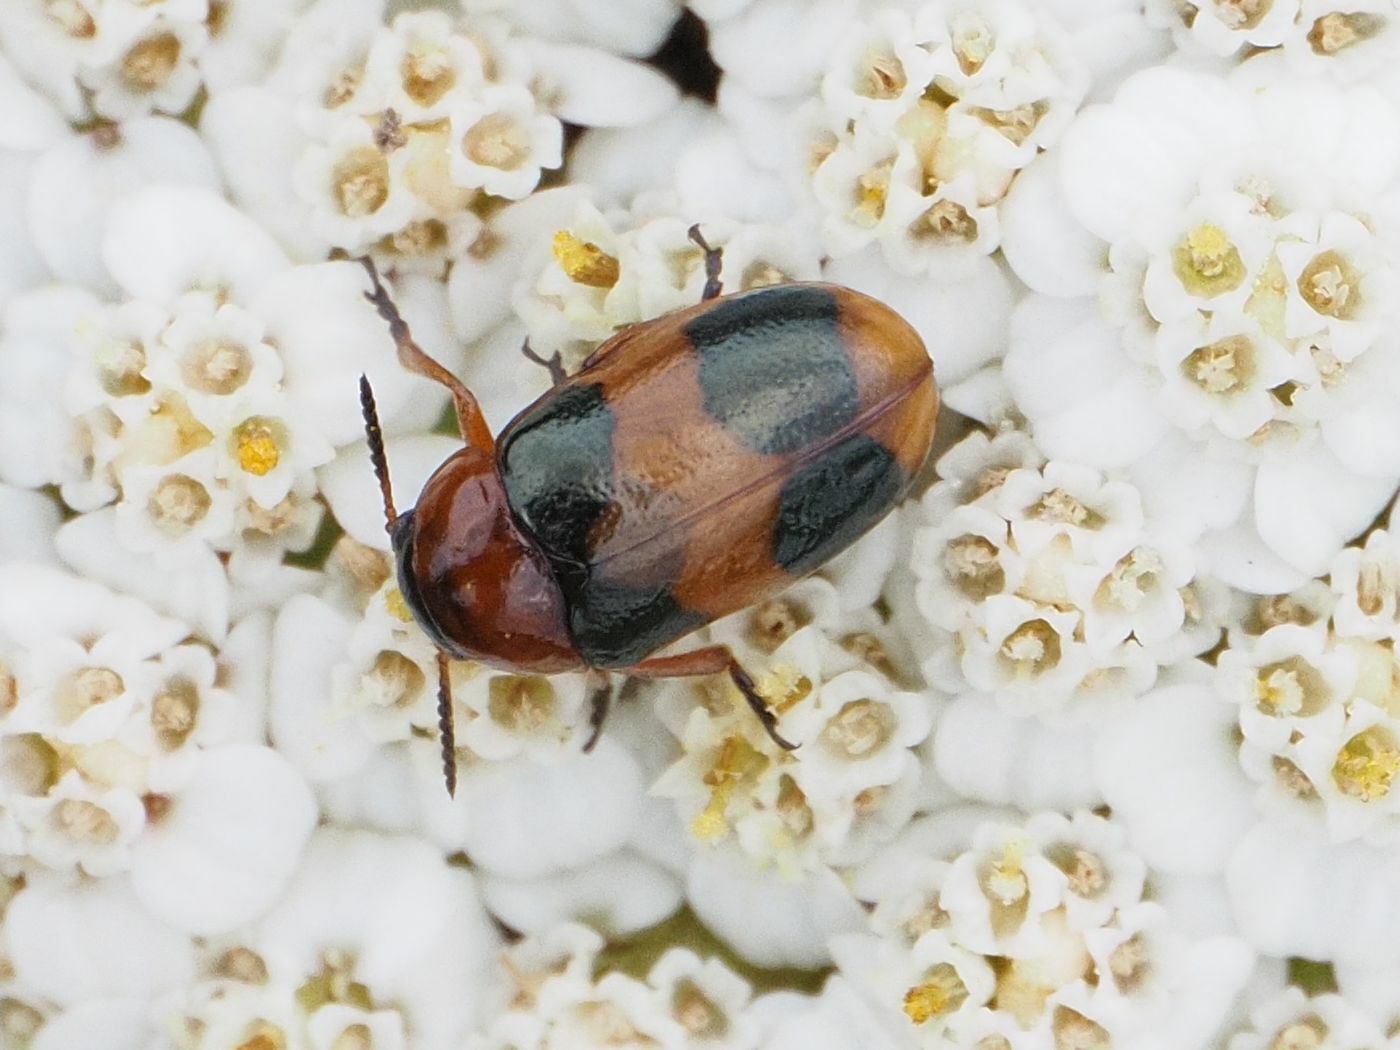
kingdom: Animalia
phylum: Arthropoda
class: Insecta
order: Coleoptera
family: Chrysomelidae
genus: Coptocephala
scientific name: Coptocephala unifasciata
